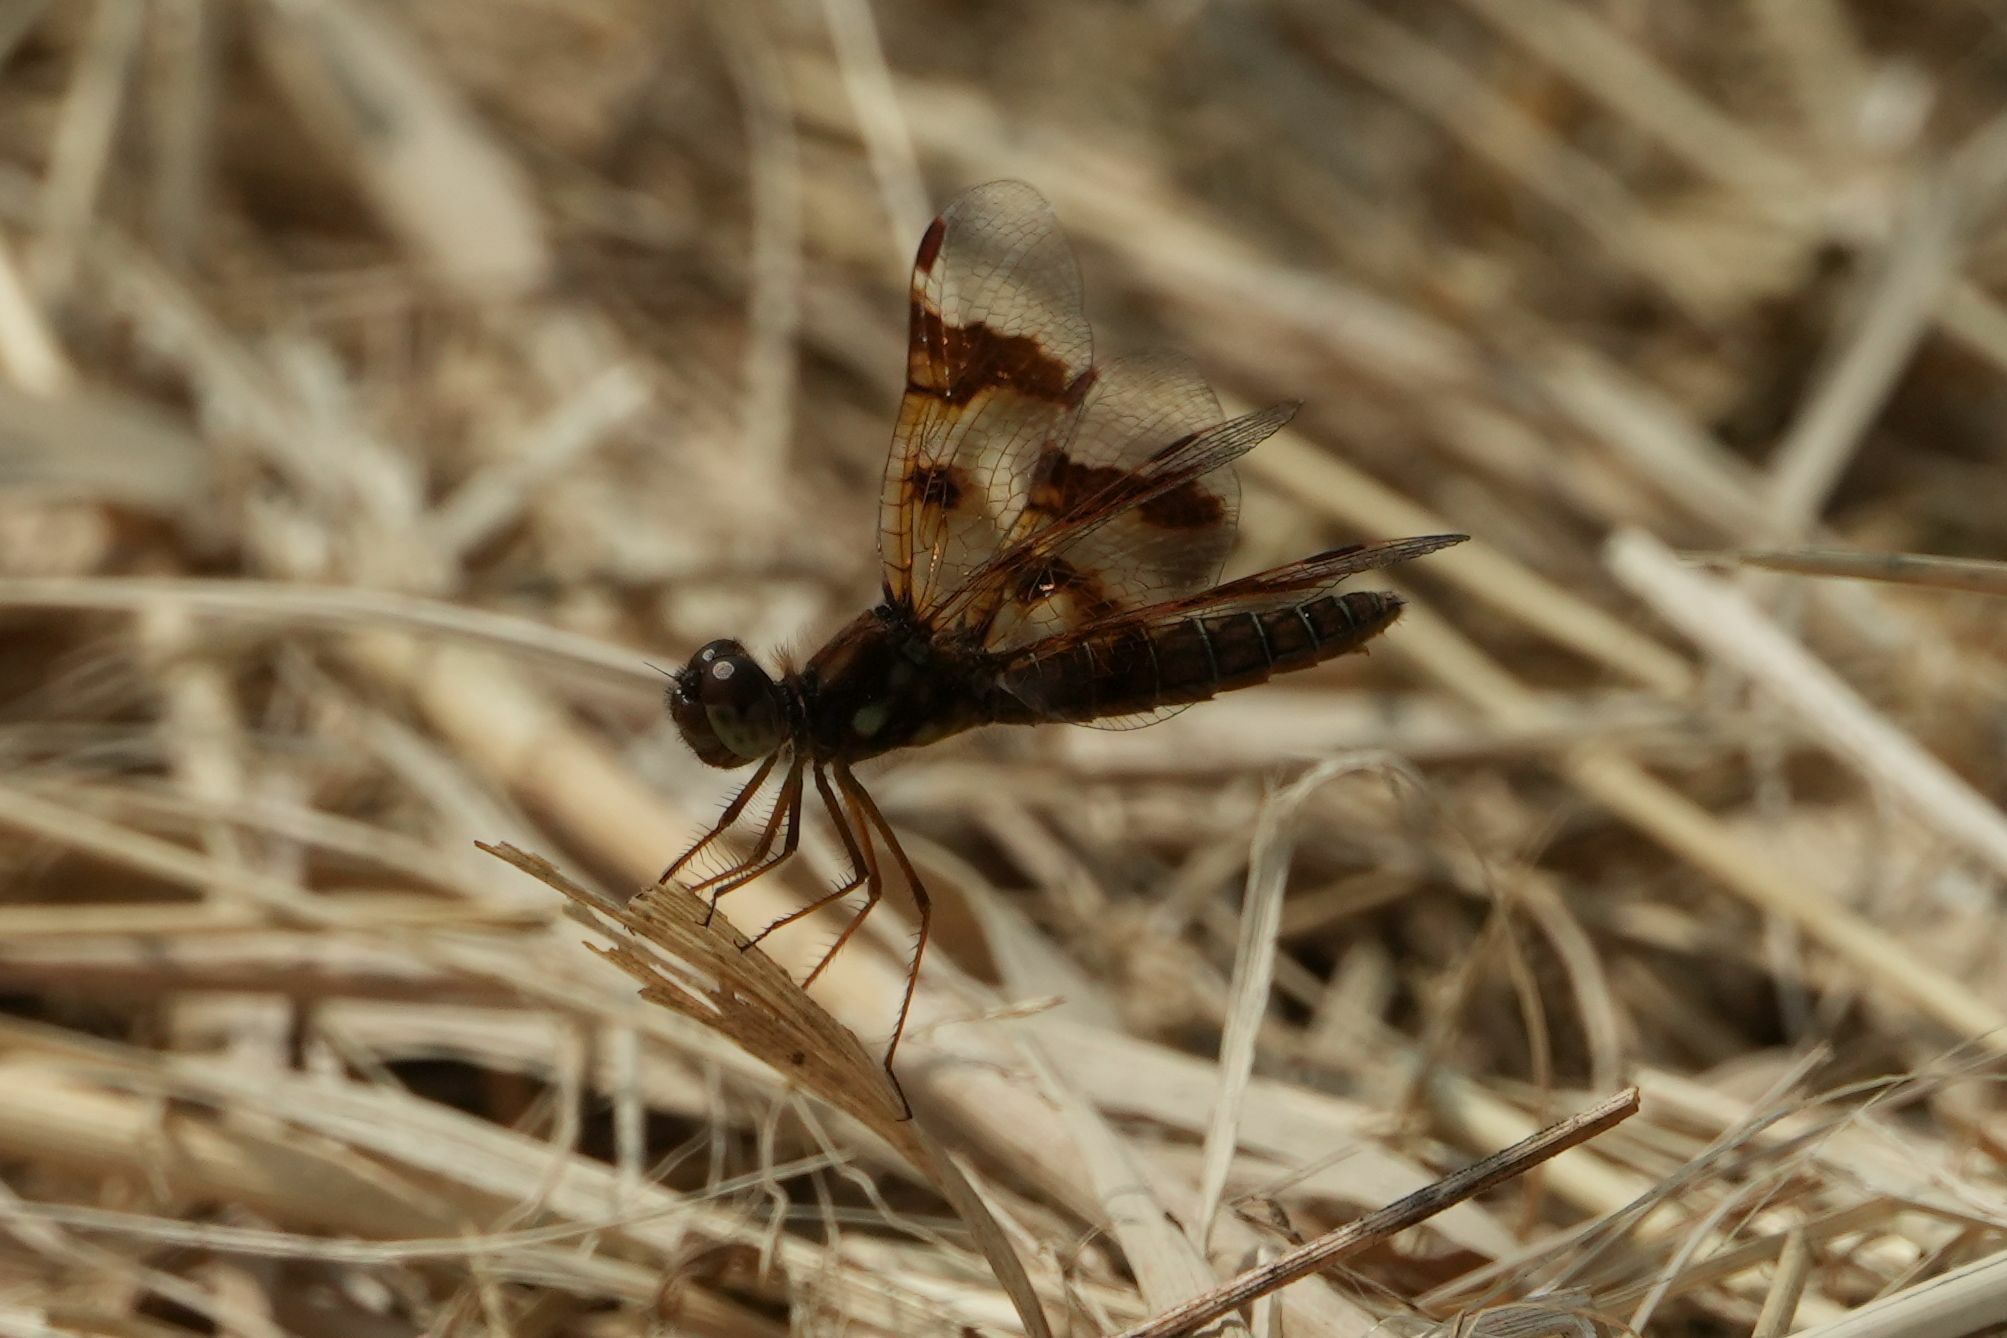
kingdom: Animalia
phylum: Arthropoda
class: Insecta
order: Odonata
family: Libellulidae
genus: Perithemis
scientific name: Perithemis tenera
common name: Eastern amberwing
